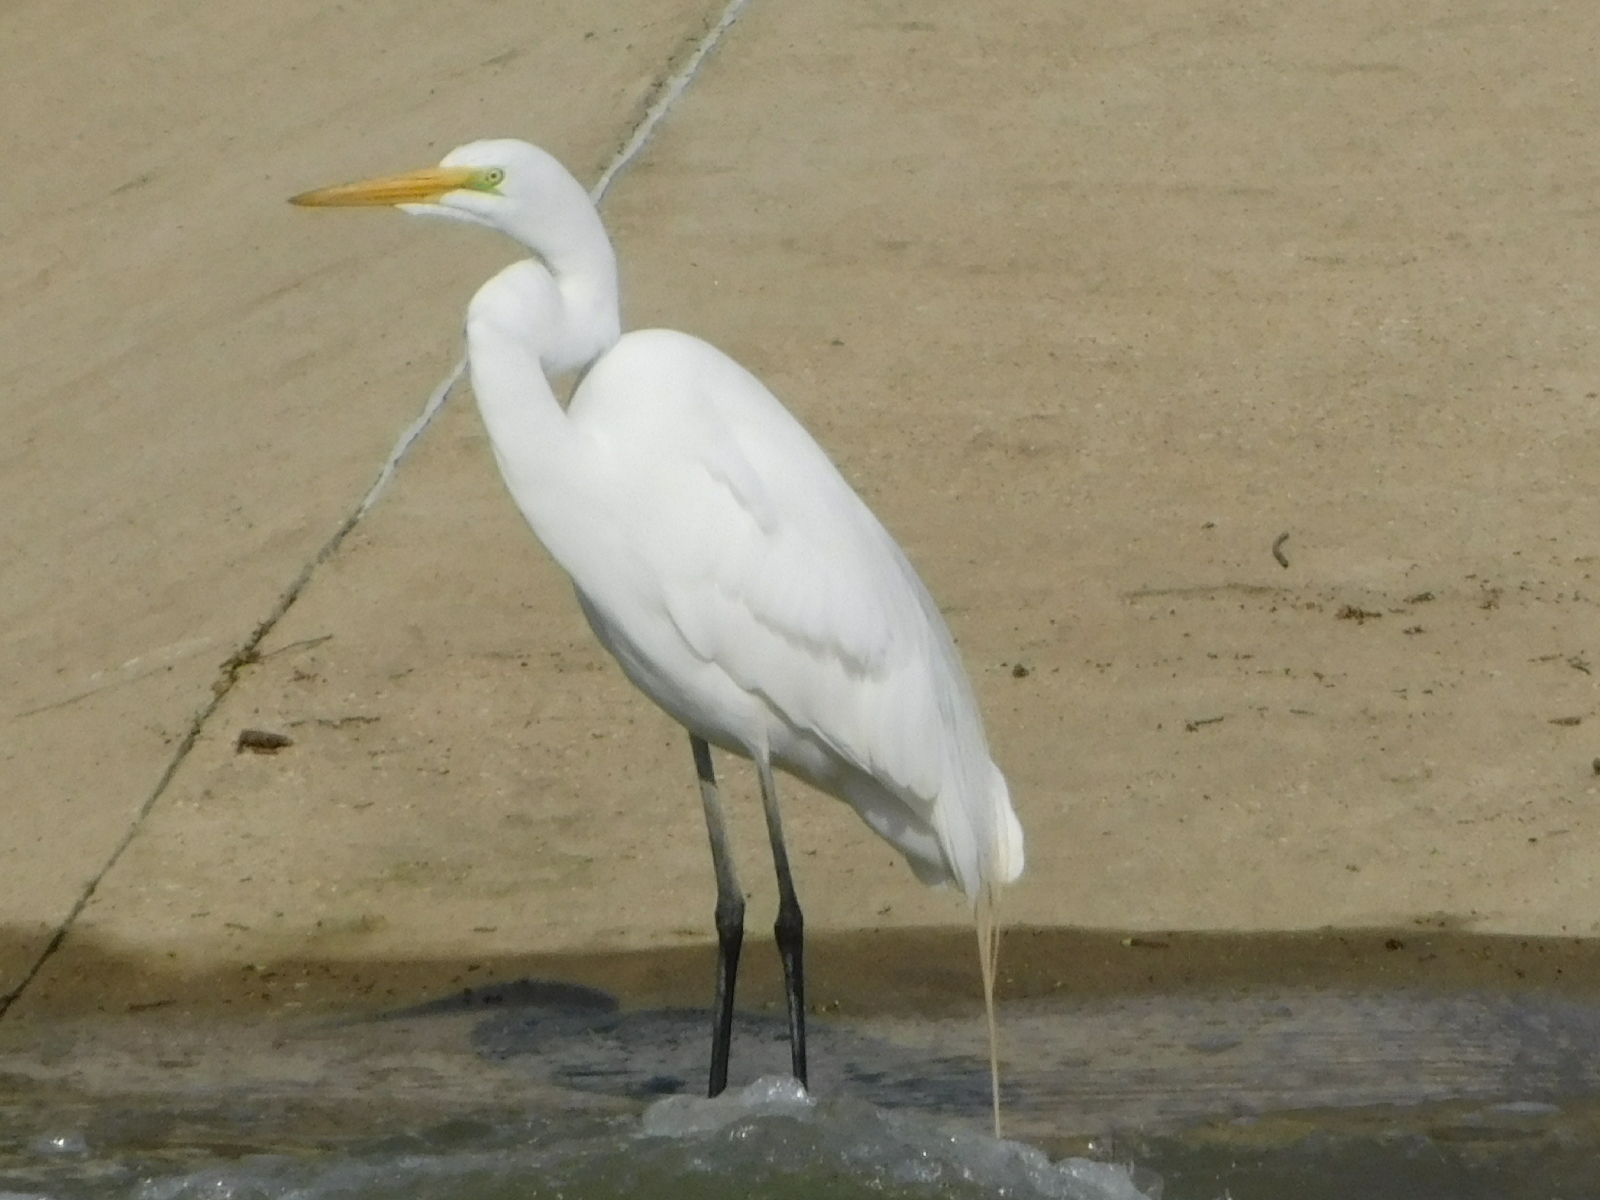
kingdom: Animalia
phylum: Chordata
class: Aves
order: Pelecaniformes
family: Ardeidae
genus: Ardea
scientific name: Ardea alba
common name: Great egret
